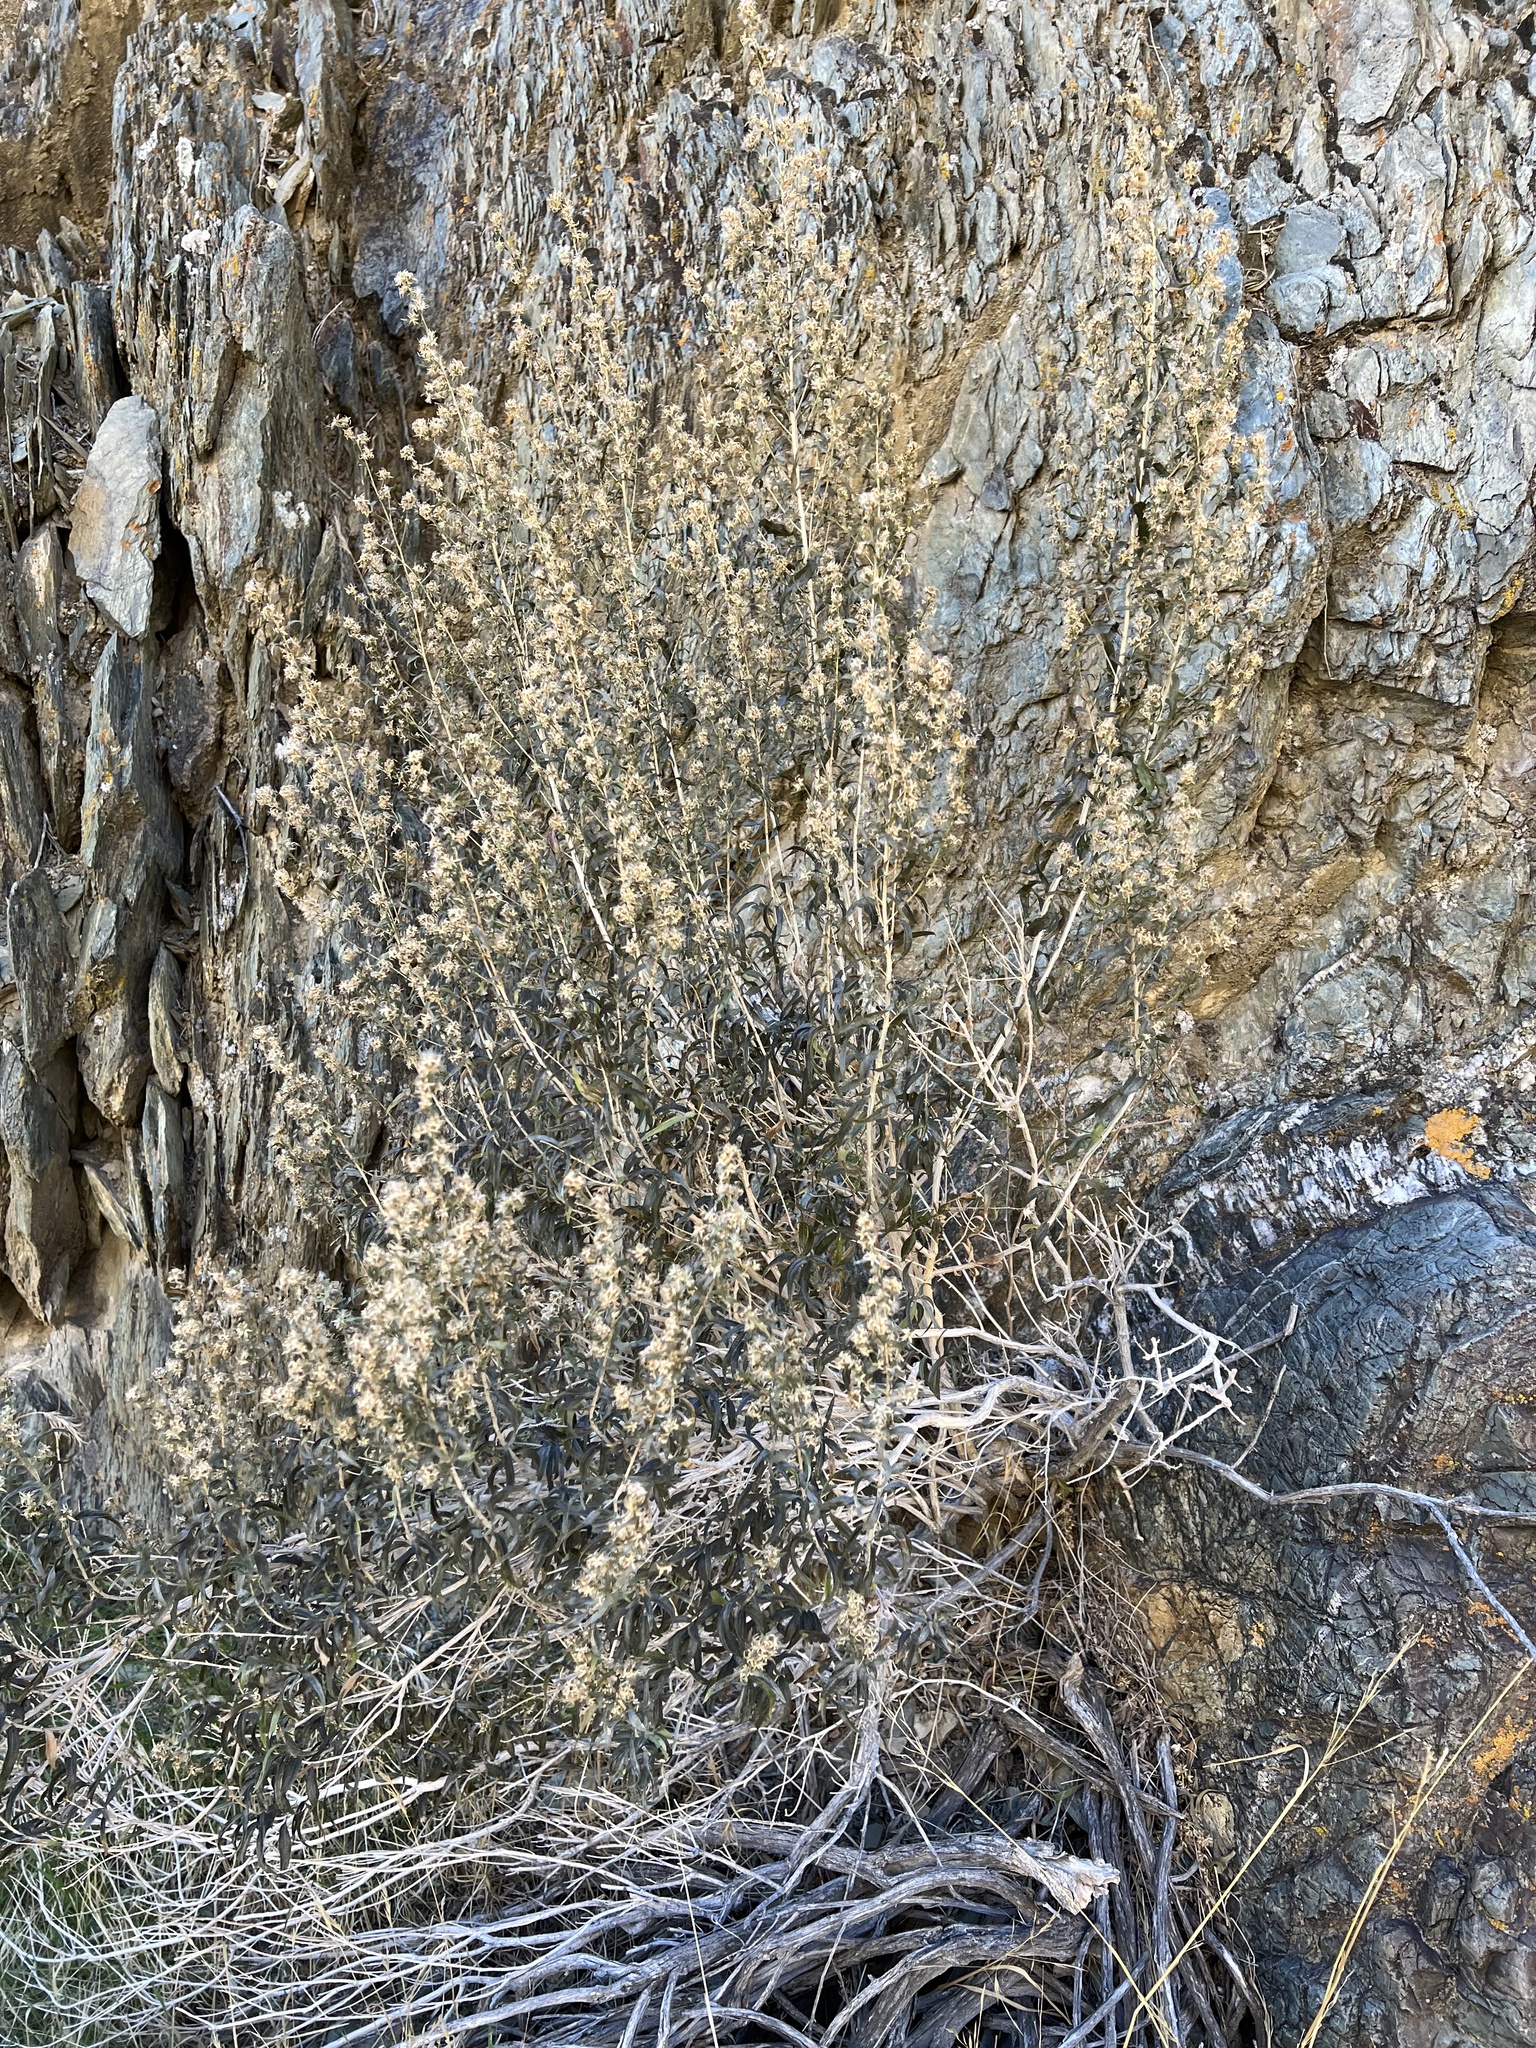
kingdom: Plantae
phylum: Tracheophyta
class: Magnoliopsida
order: Asterales
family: Asteraceae
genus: Brickellia
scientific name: Brickellia longifolia
